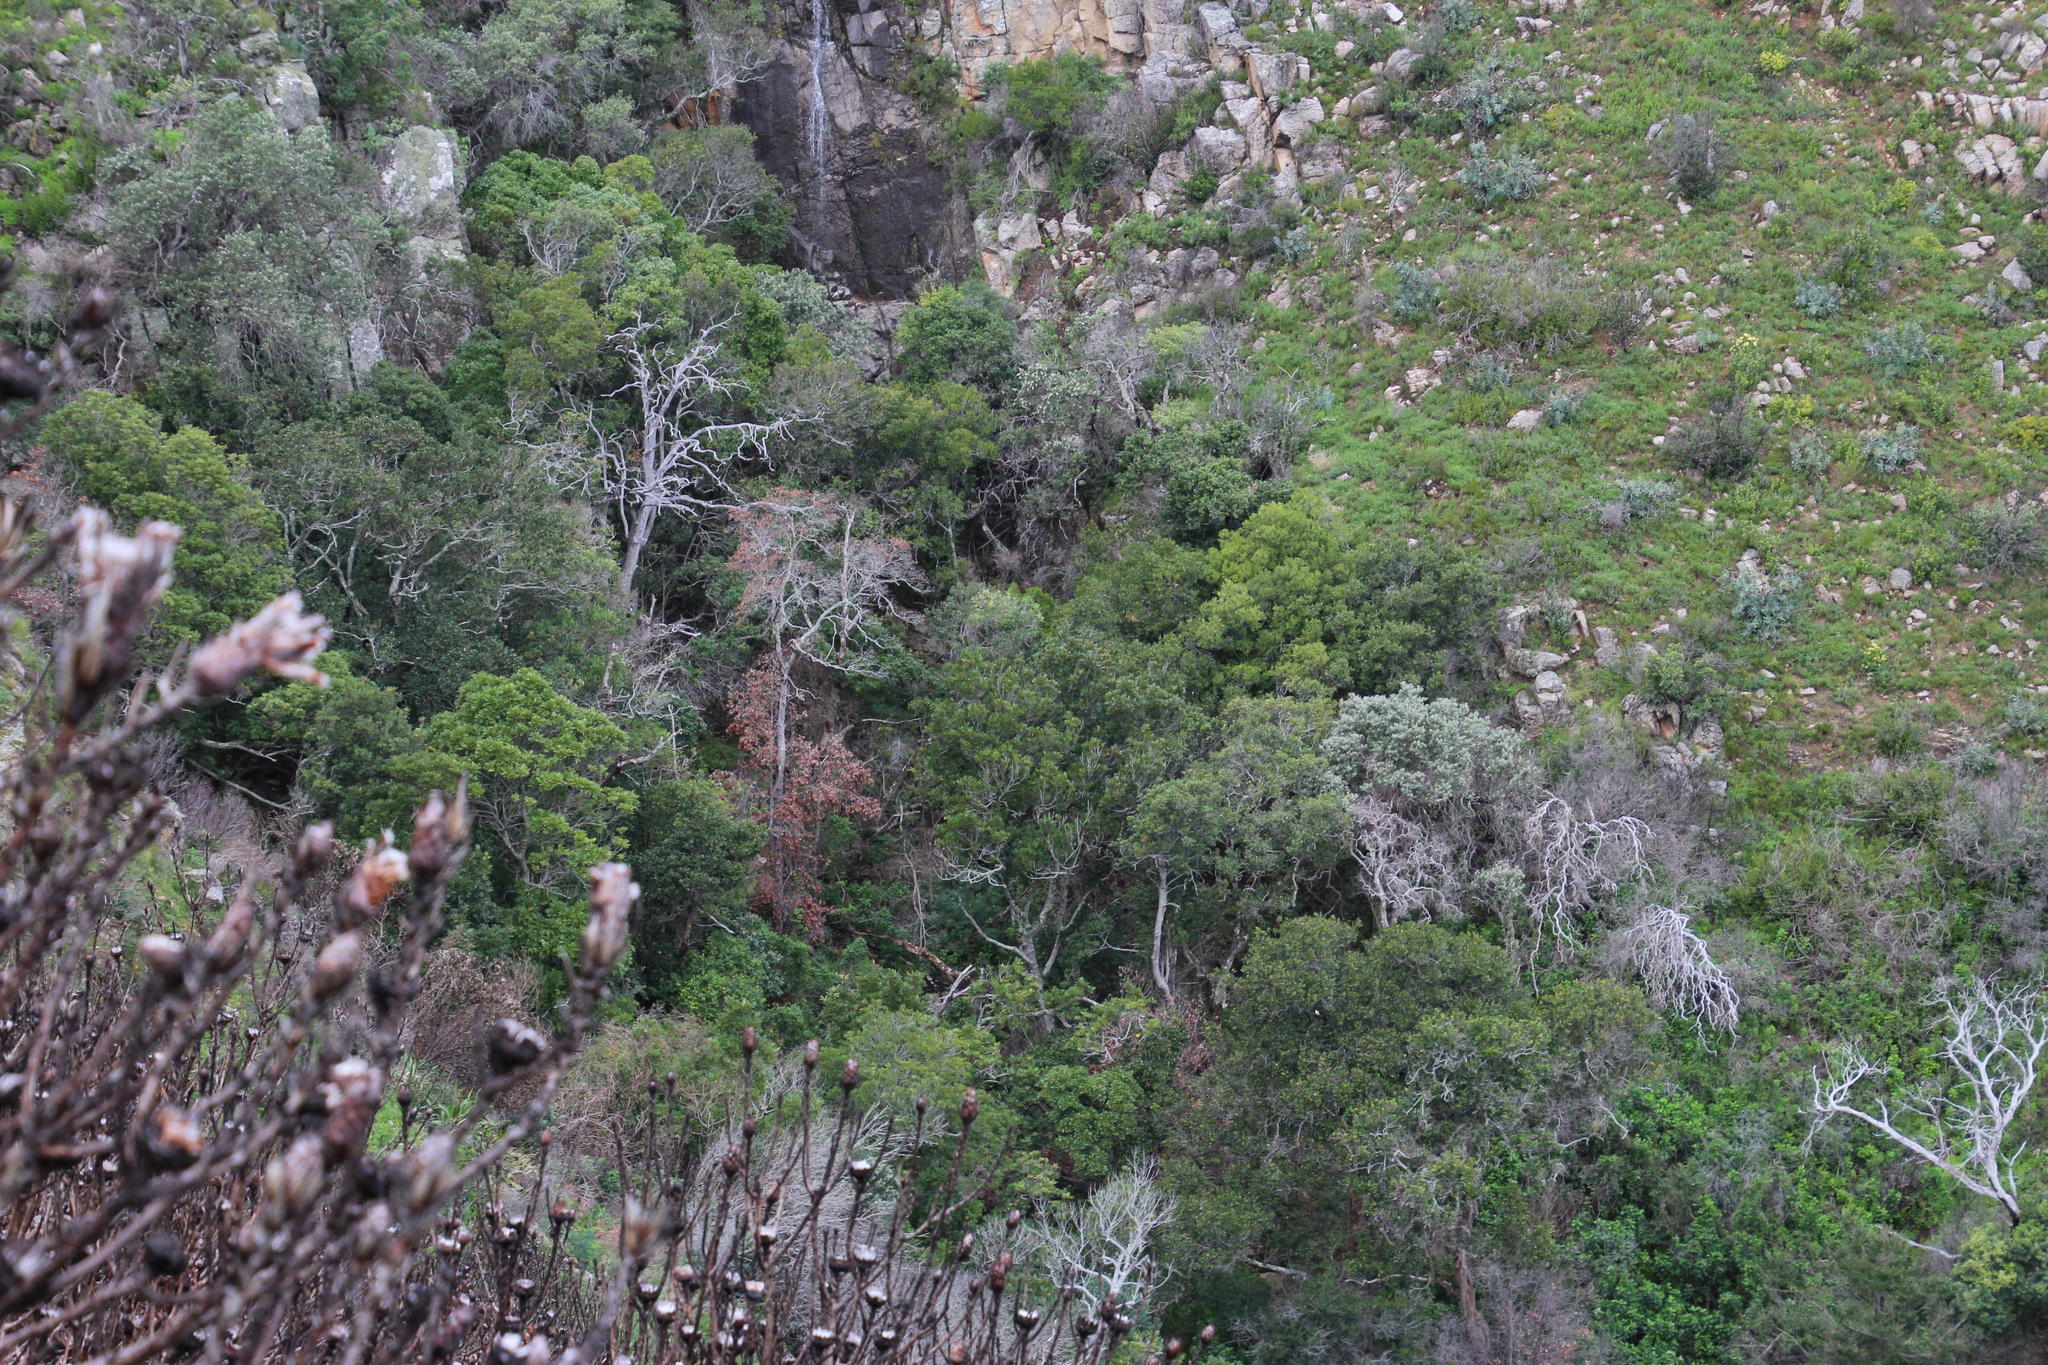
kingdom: Plantae
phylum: Tracheophyta
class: Magnoliopsida
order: Oxalidales
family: Cunoniaceae
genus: Cunonia
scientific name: Cunonia capensis
